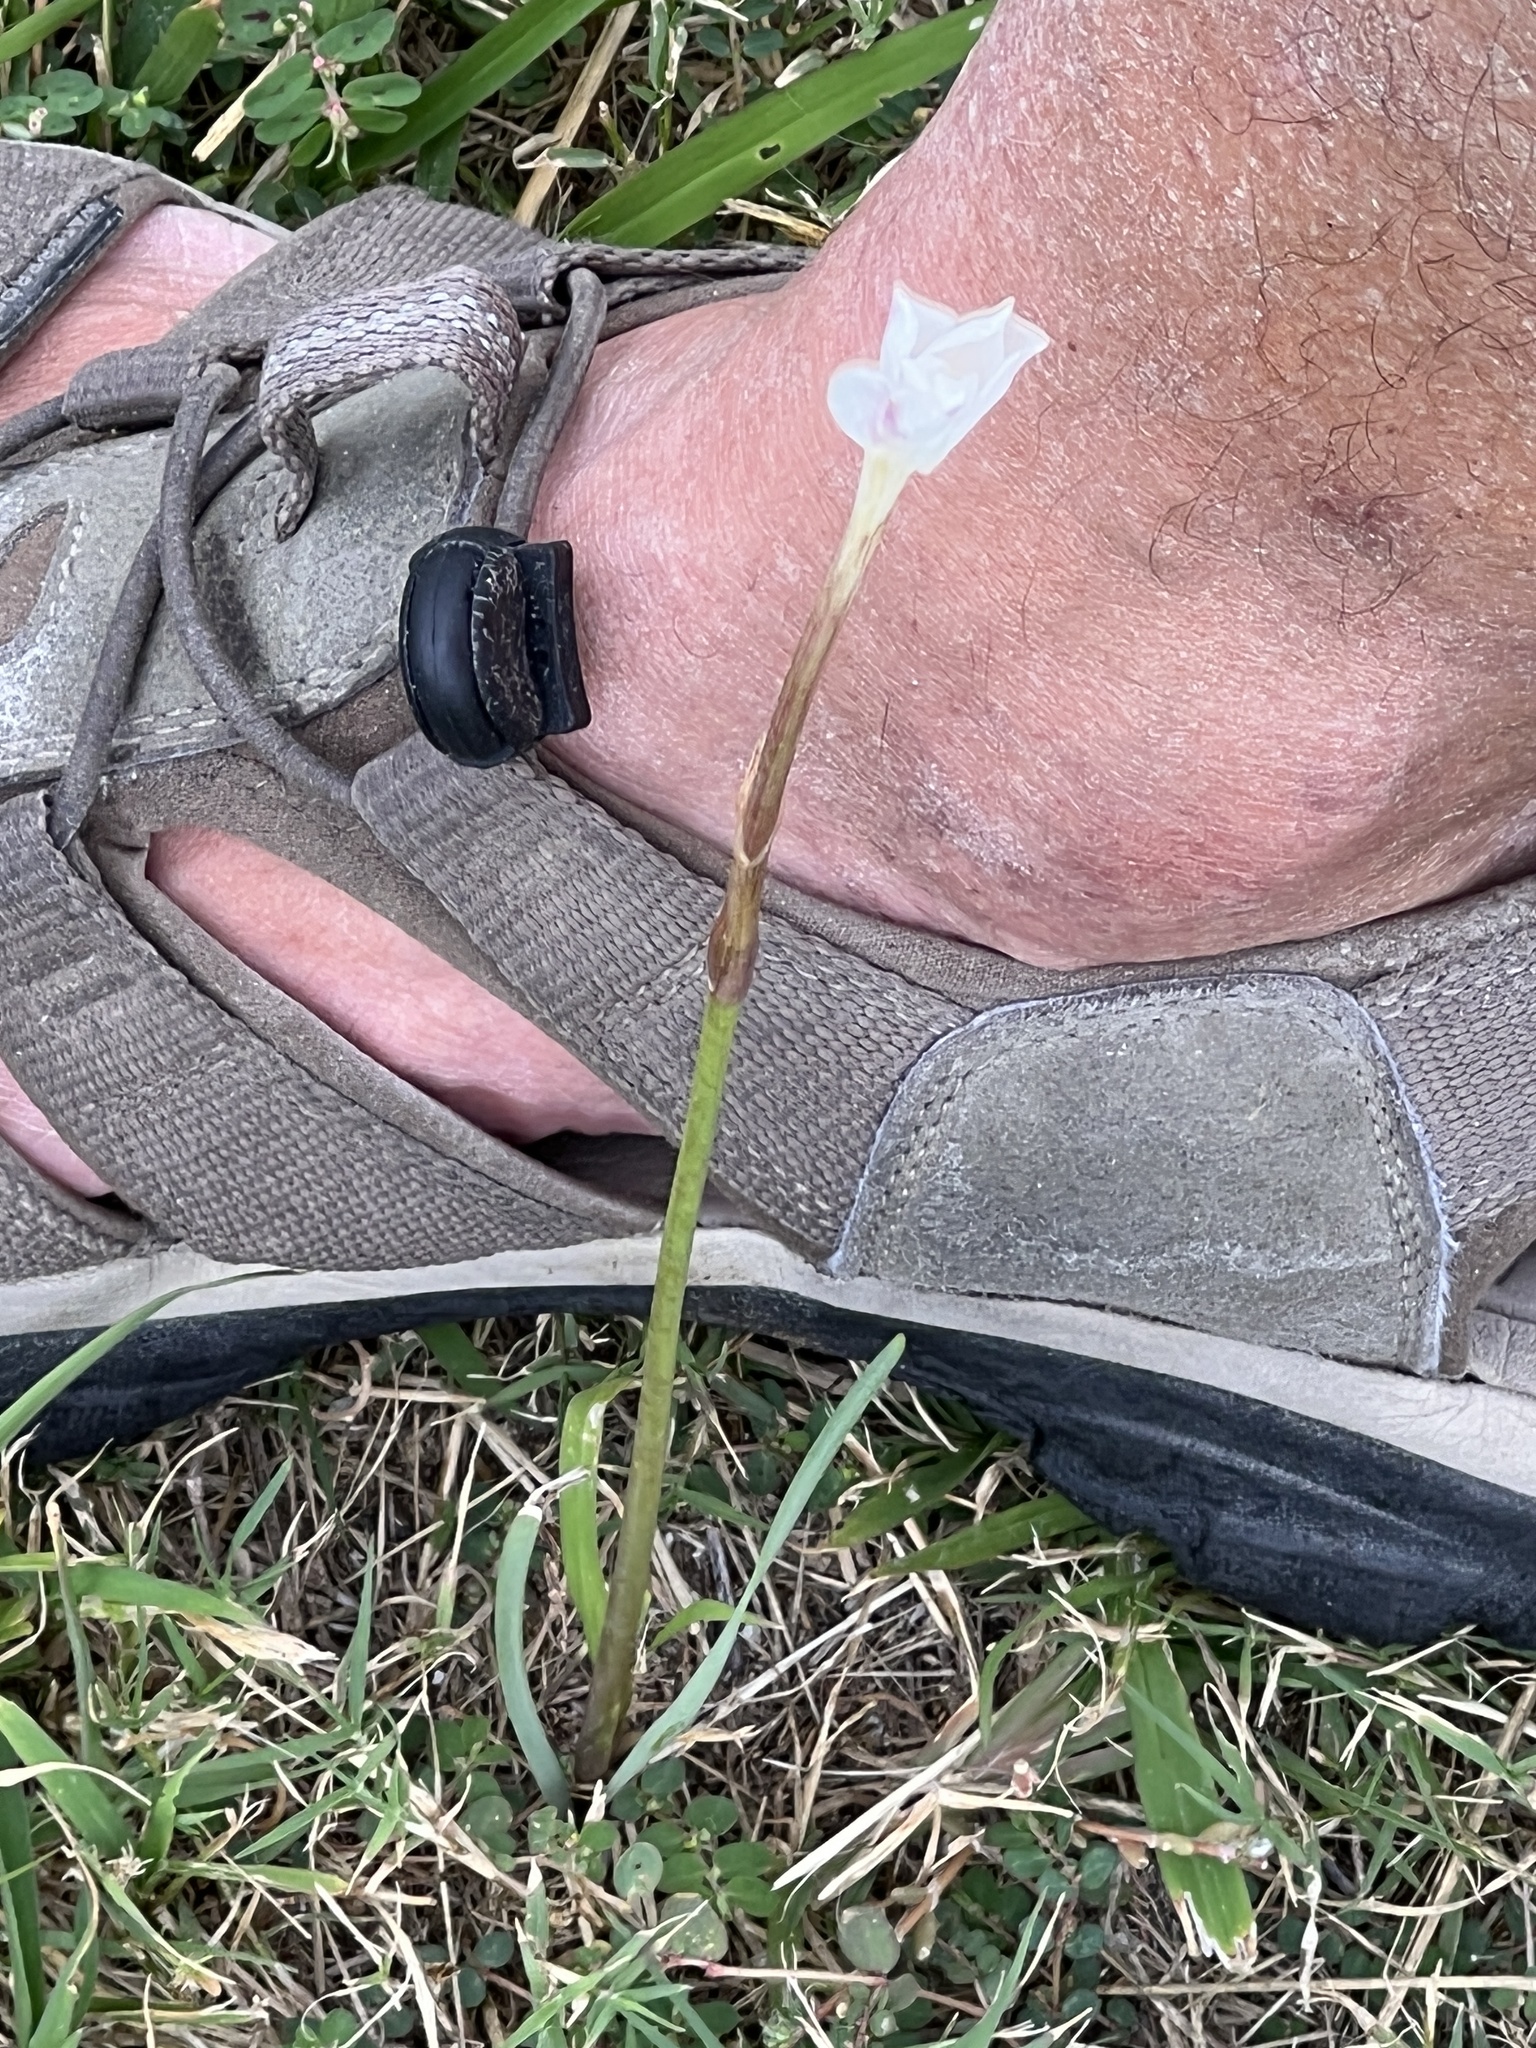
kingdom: Plantae
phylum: Tracheophyta
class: Liliopsida
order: Asparagales
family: Amaryllidaceae
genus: Zephyranthes
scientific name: Zephyranthes chlorosolen
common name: Evening rain-lily
